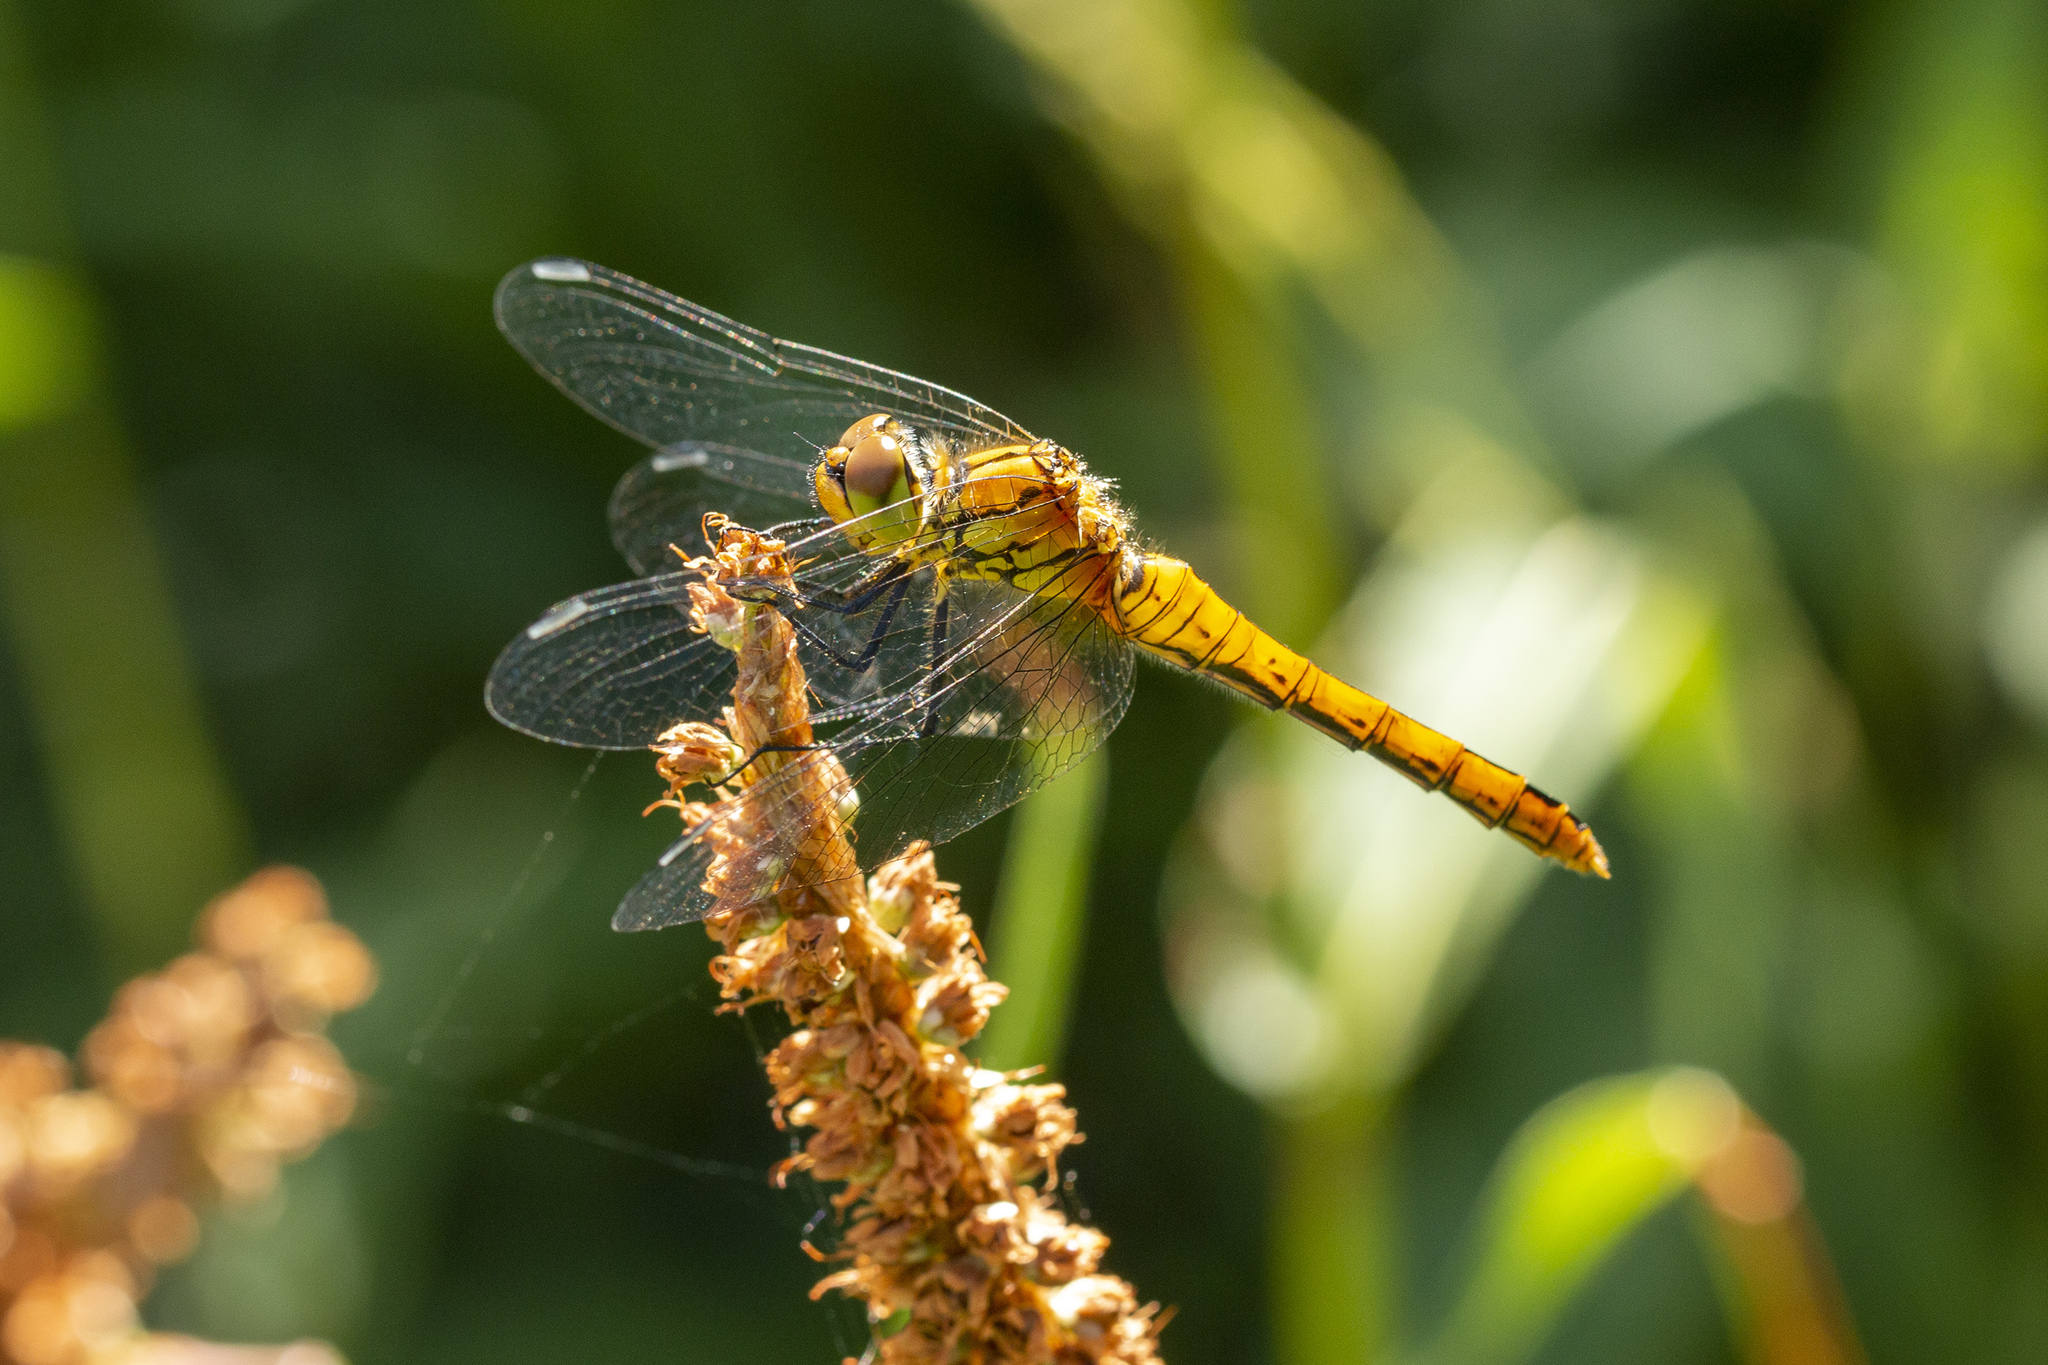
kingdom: Animalia
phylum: Arthropoda
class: Insecta
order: Odonata
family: Libellulidae
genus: Sympetrum
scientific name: Sympetrum sanguineum
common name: Ruddy darter
